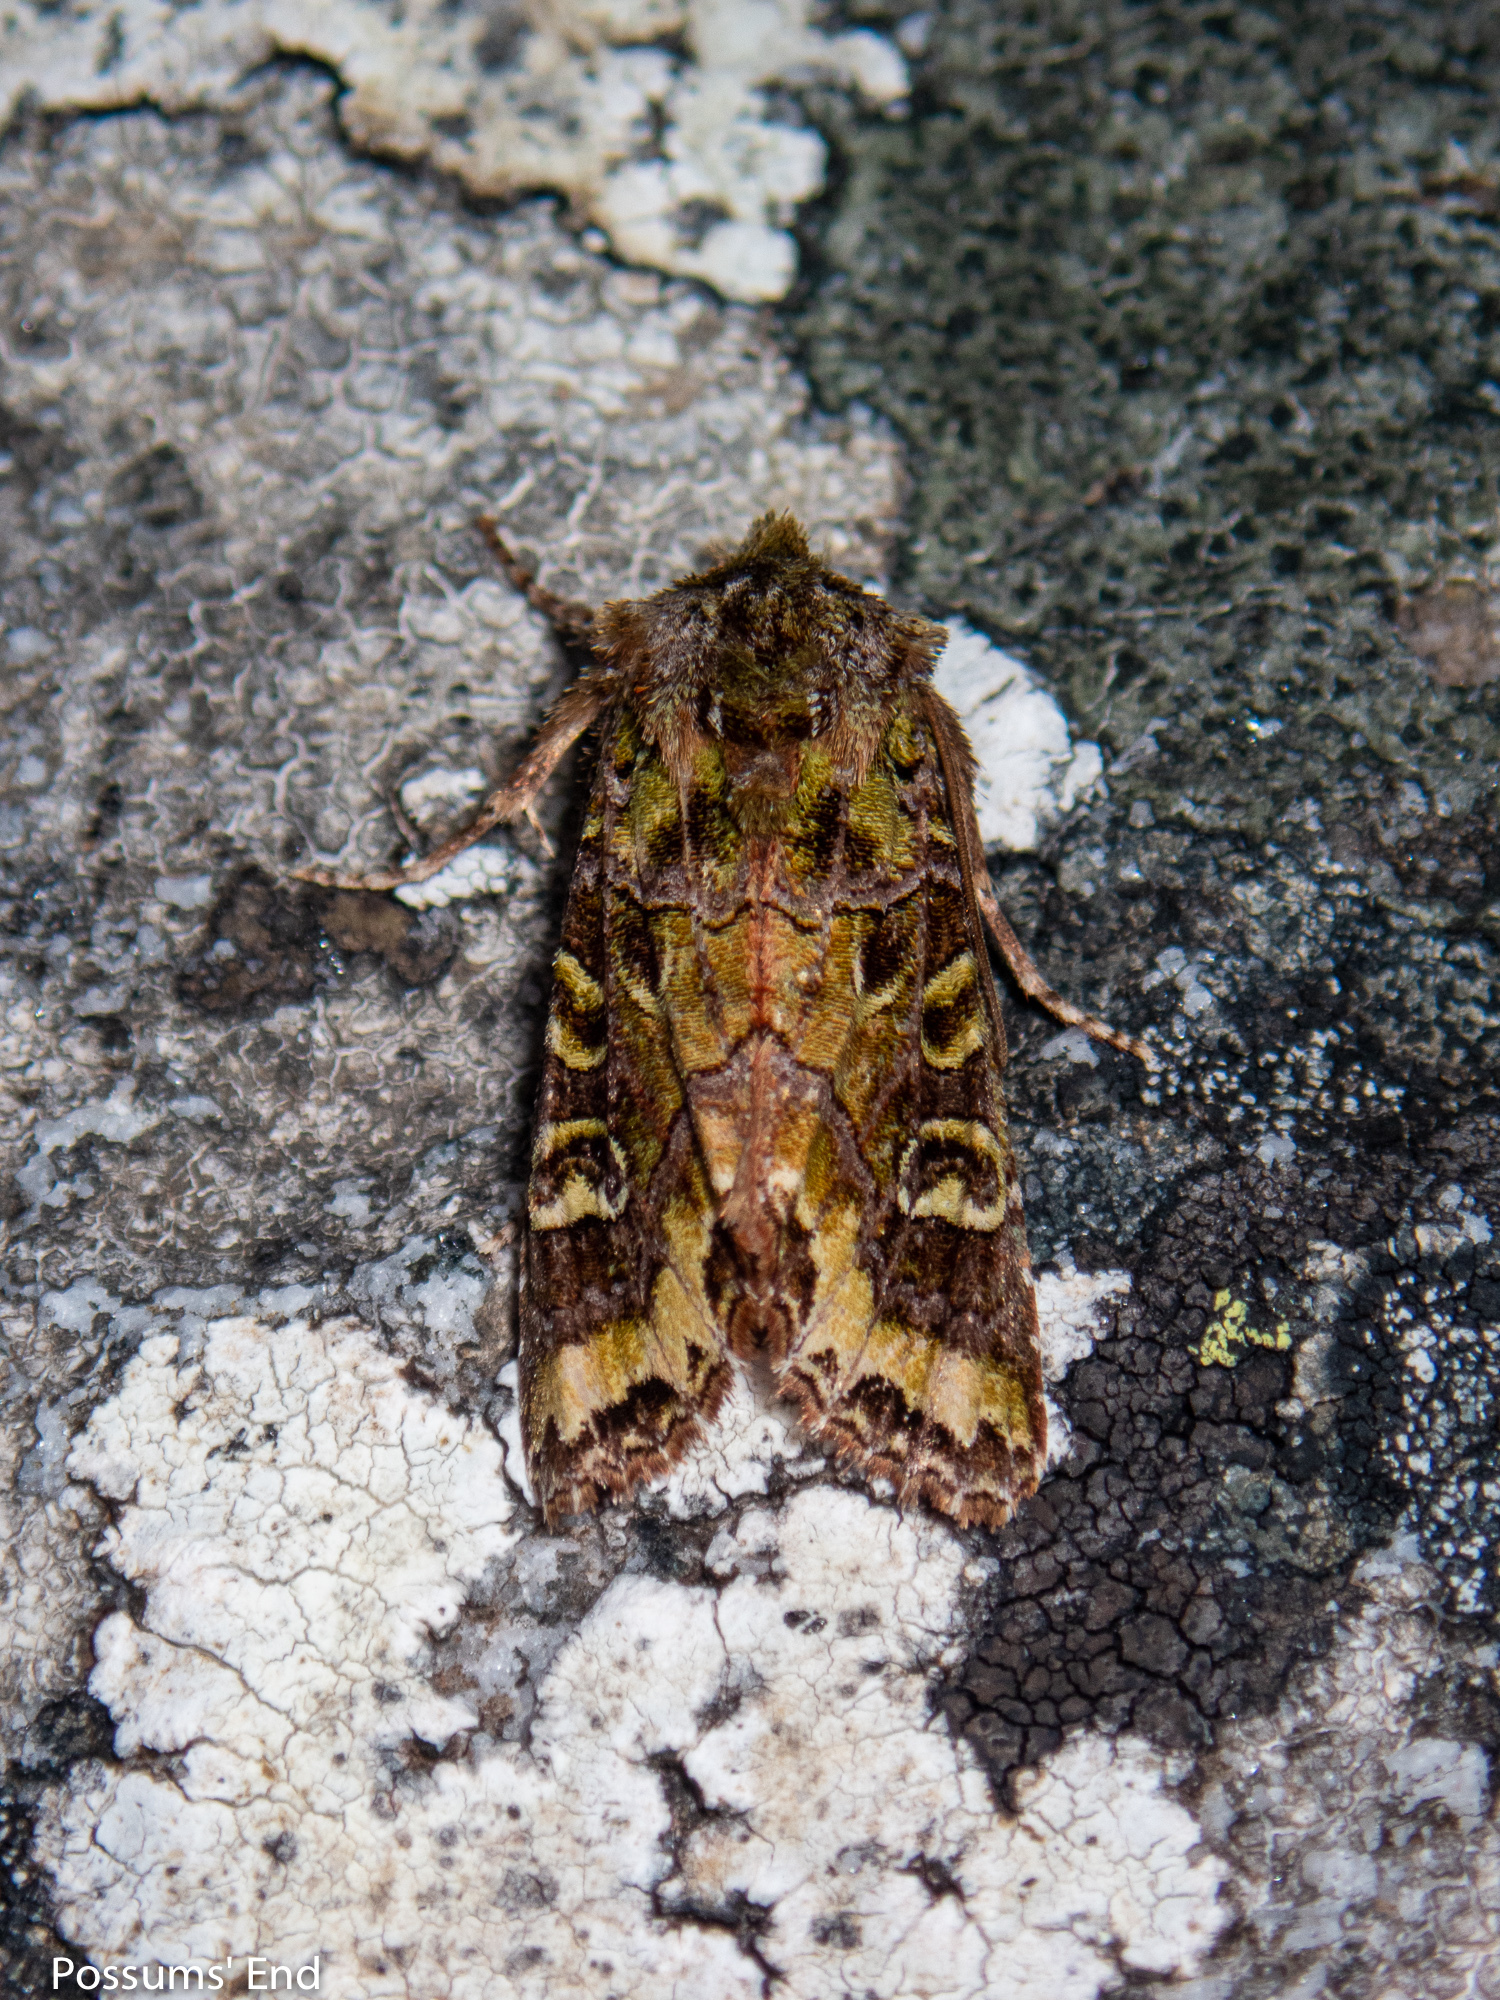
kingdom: Animalia
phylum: Arthropoda
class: Insecta
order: Lepidoptera
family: Noctuidae
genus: Ichneutica
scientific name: Ichneutica chlorodonta
